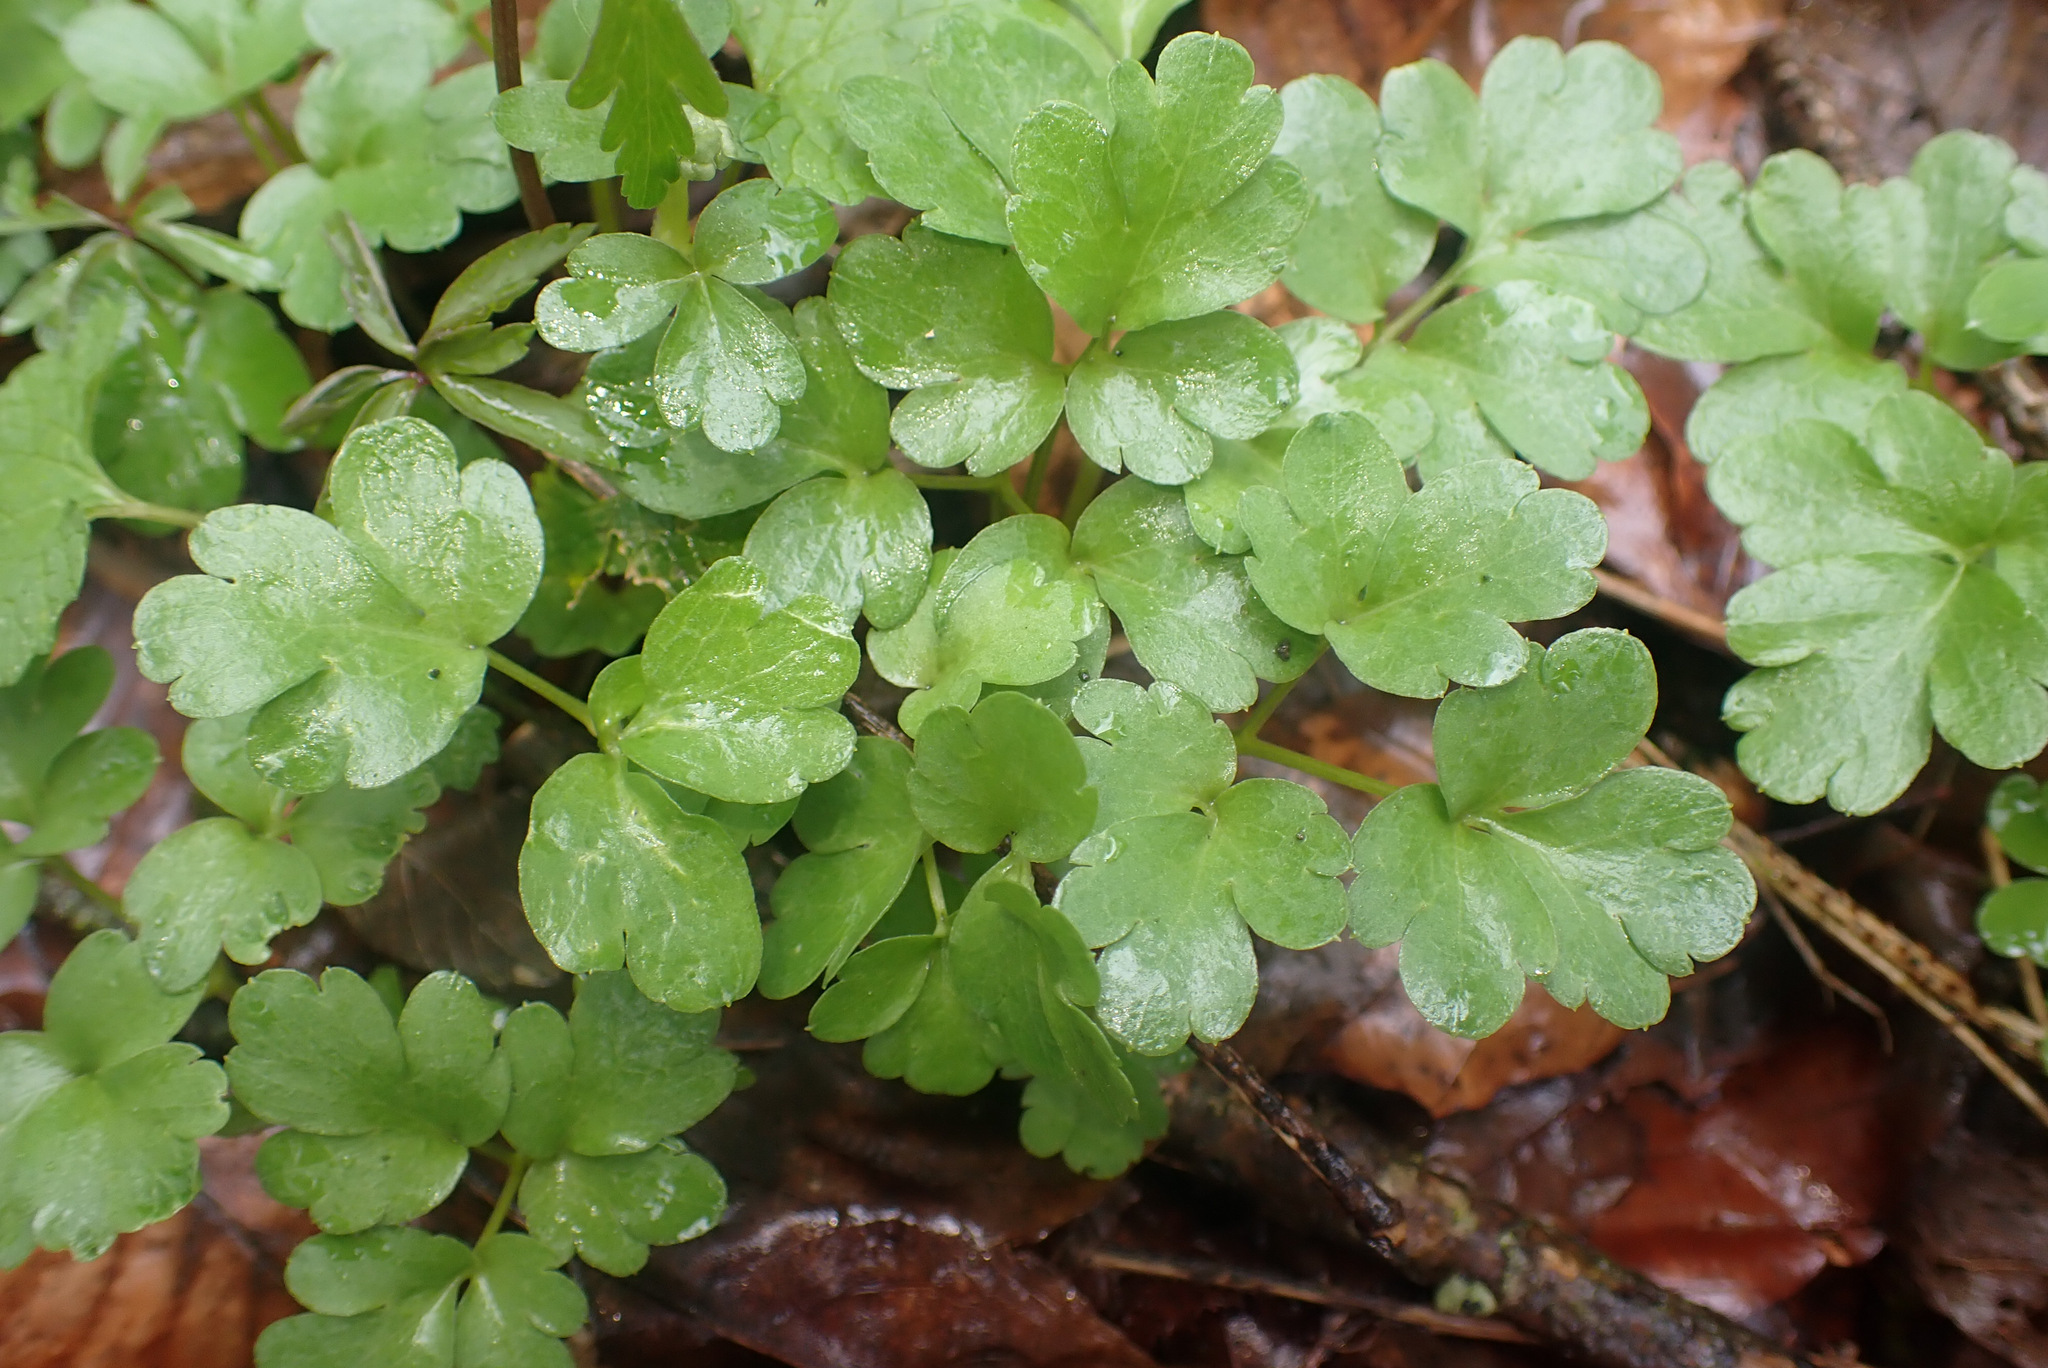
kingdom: Plantae
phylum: Tracheophyta
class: Magnoliopsida
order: Dipsacales
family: Viburnaceae
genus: Adoxa
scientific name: Adoxa moschatellina
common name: Moschatel
